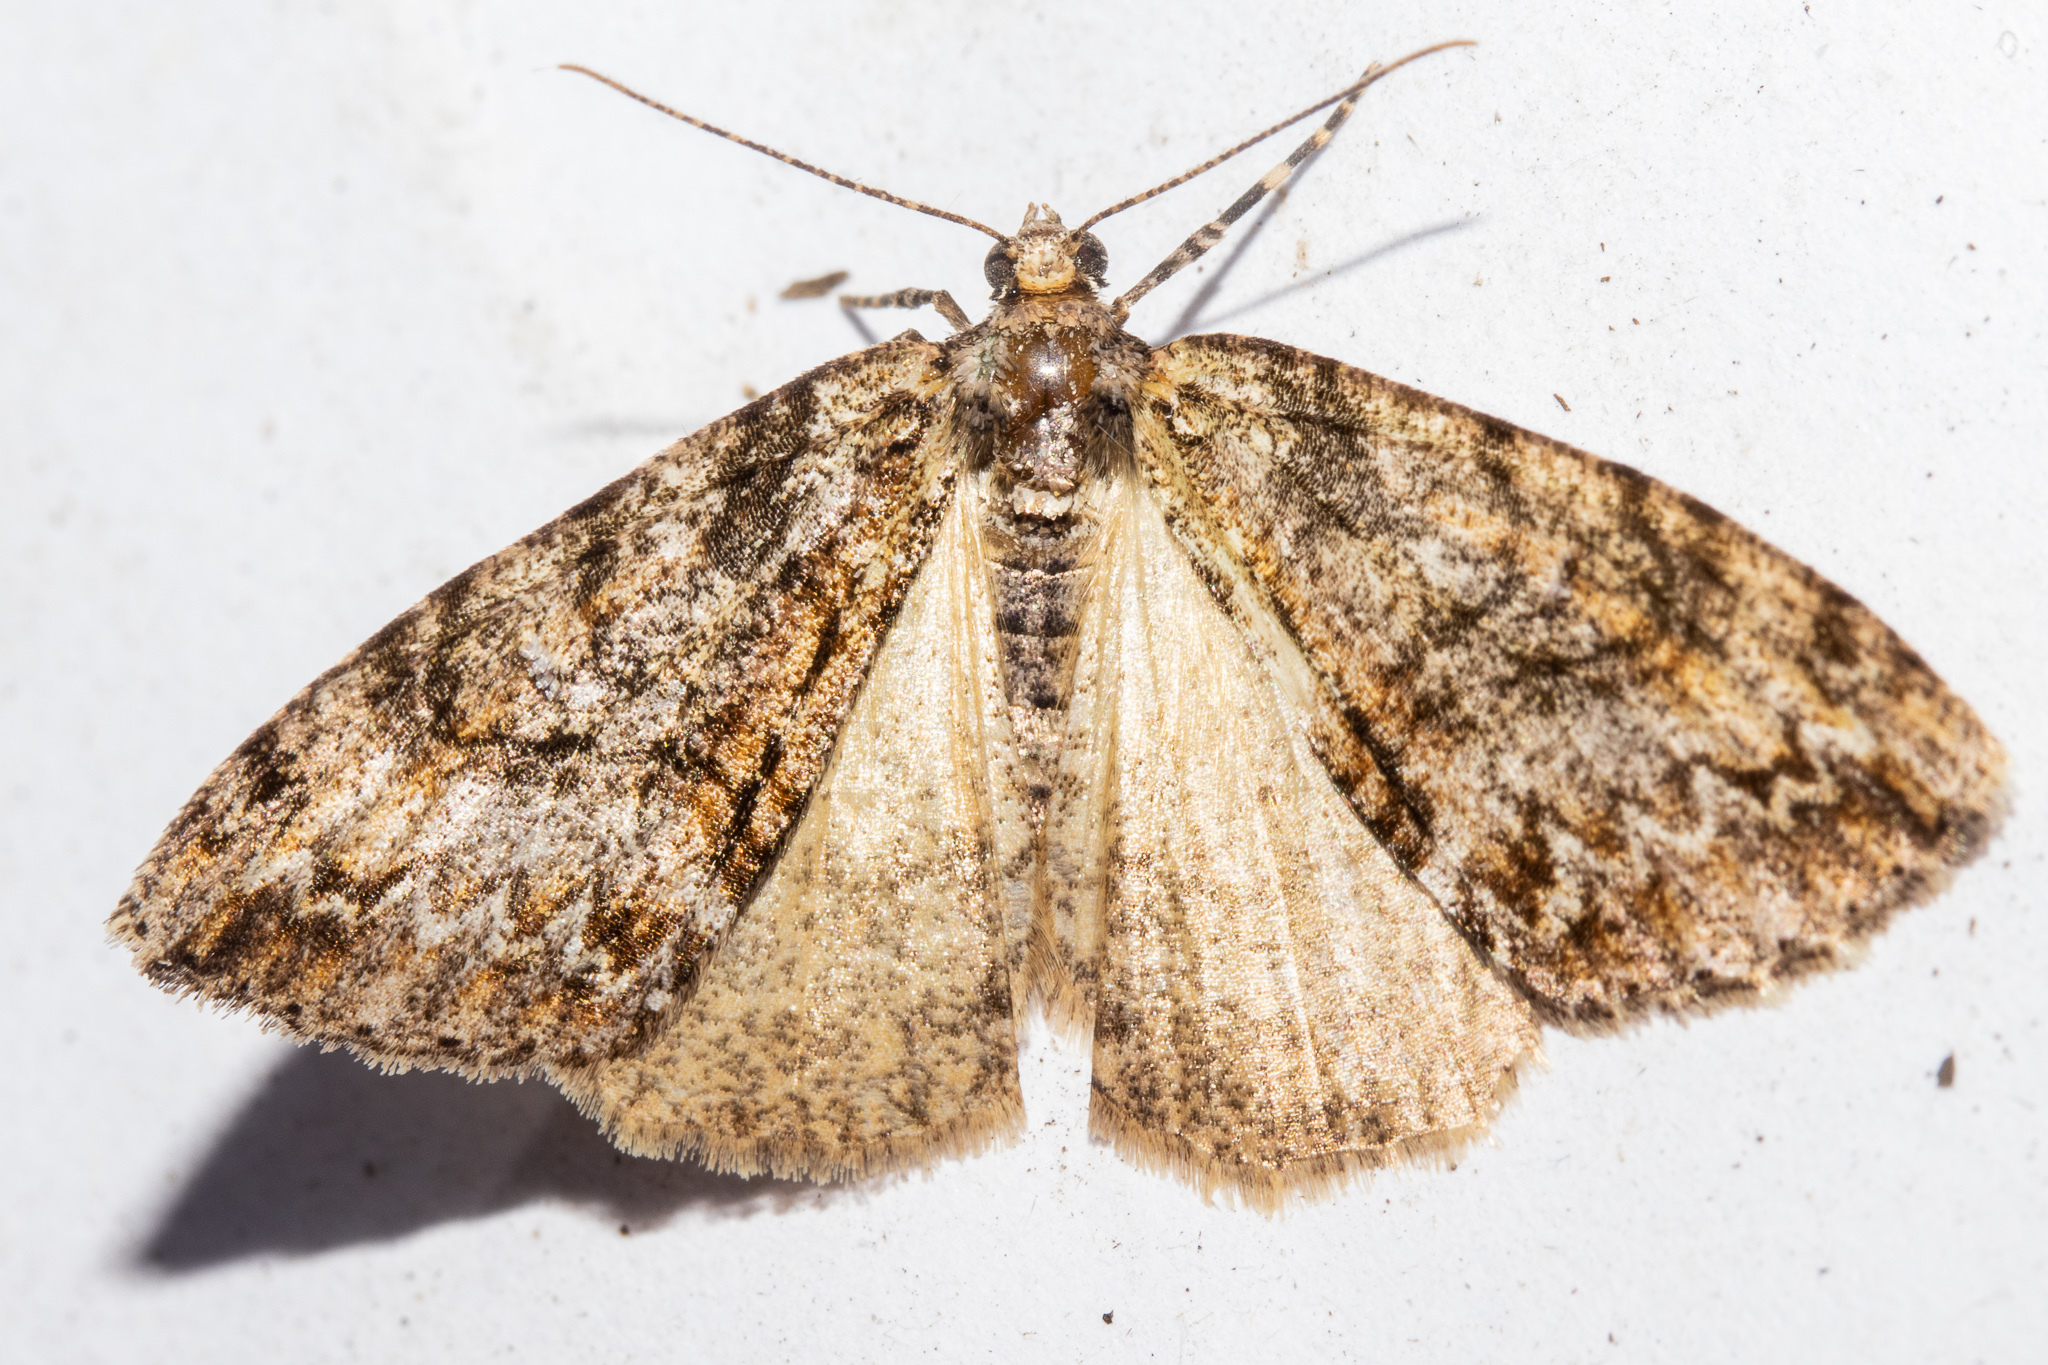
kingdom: Animalia
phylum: Arthropoda
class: Insecta
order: Lepidoptera
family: Geometridae
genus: Pseudocoremia
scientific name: Pseudocoremia suavis
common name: Common forest looper
